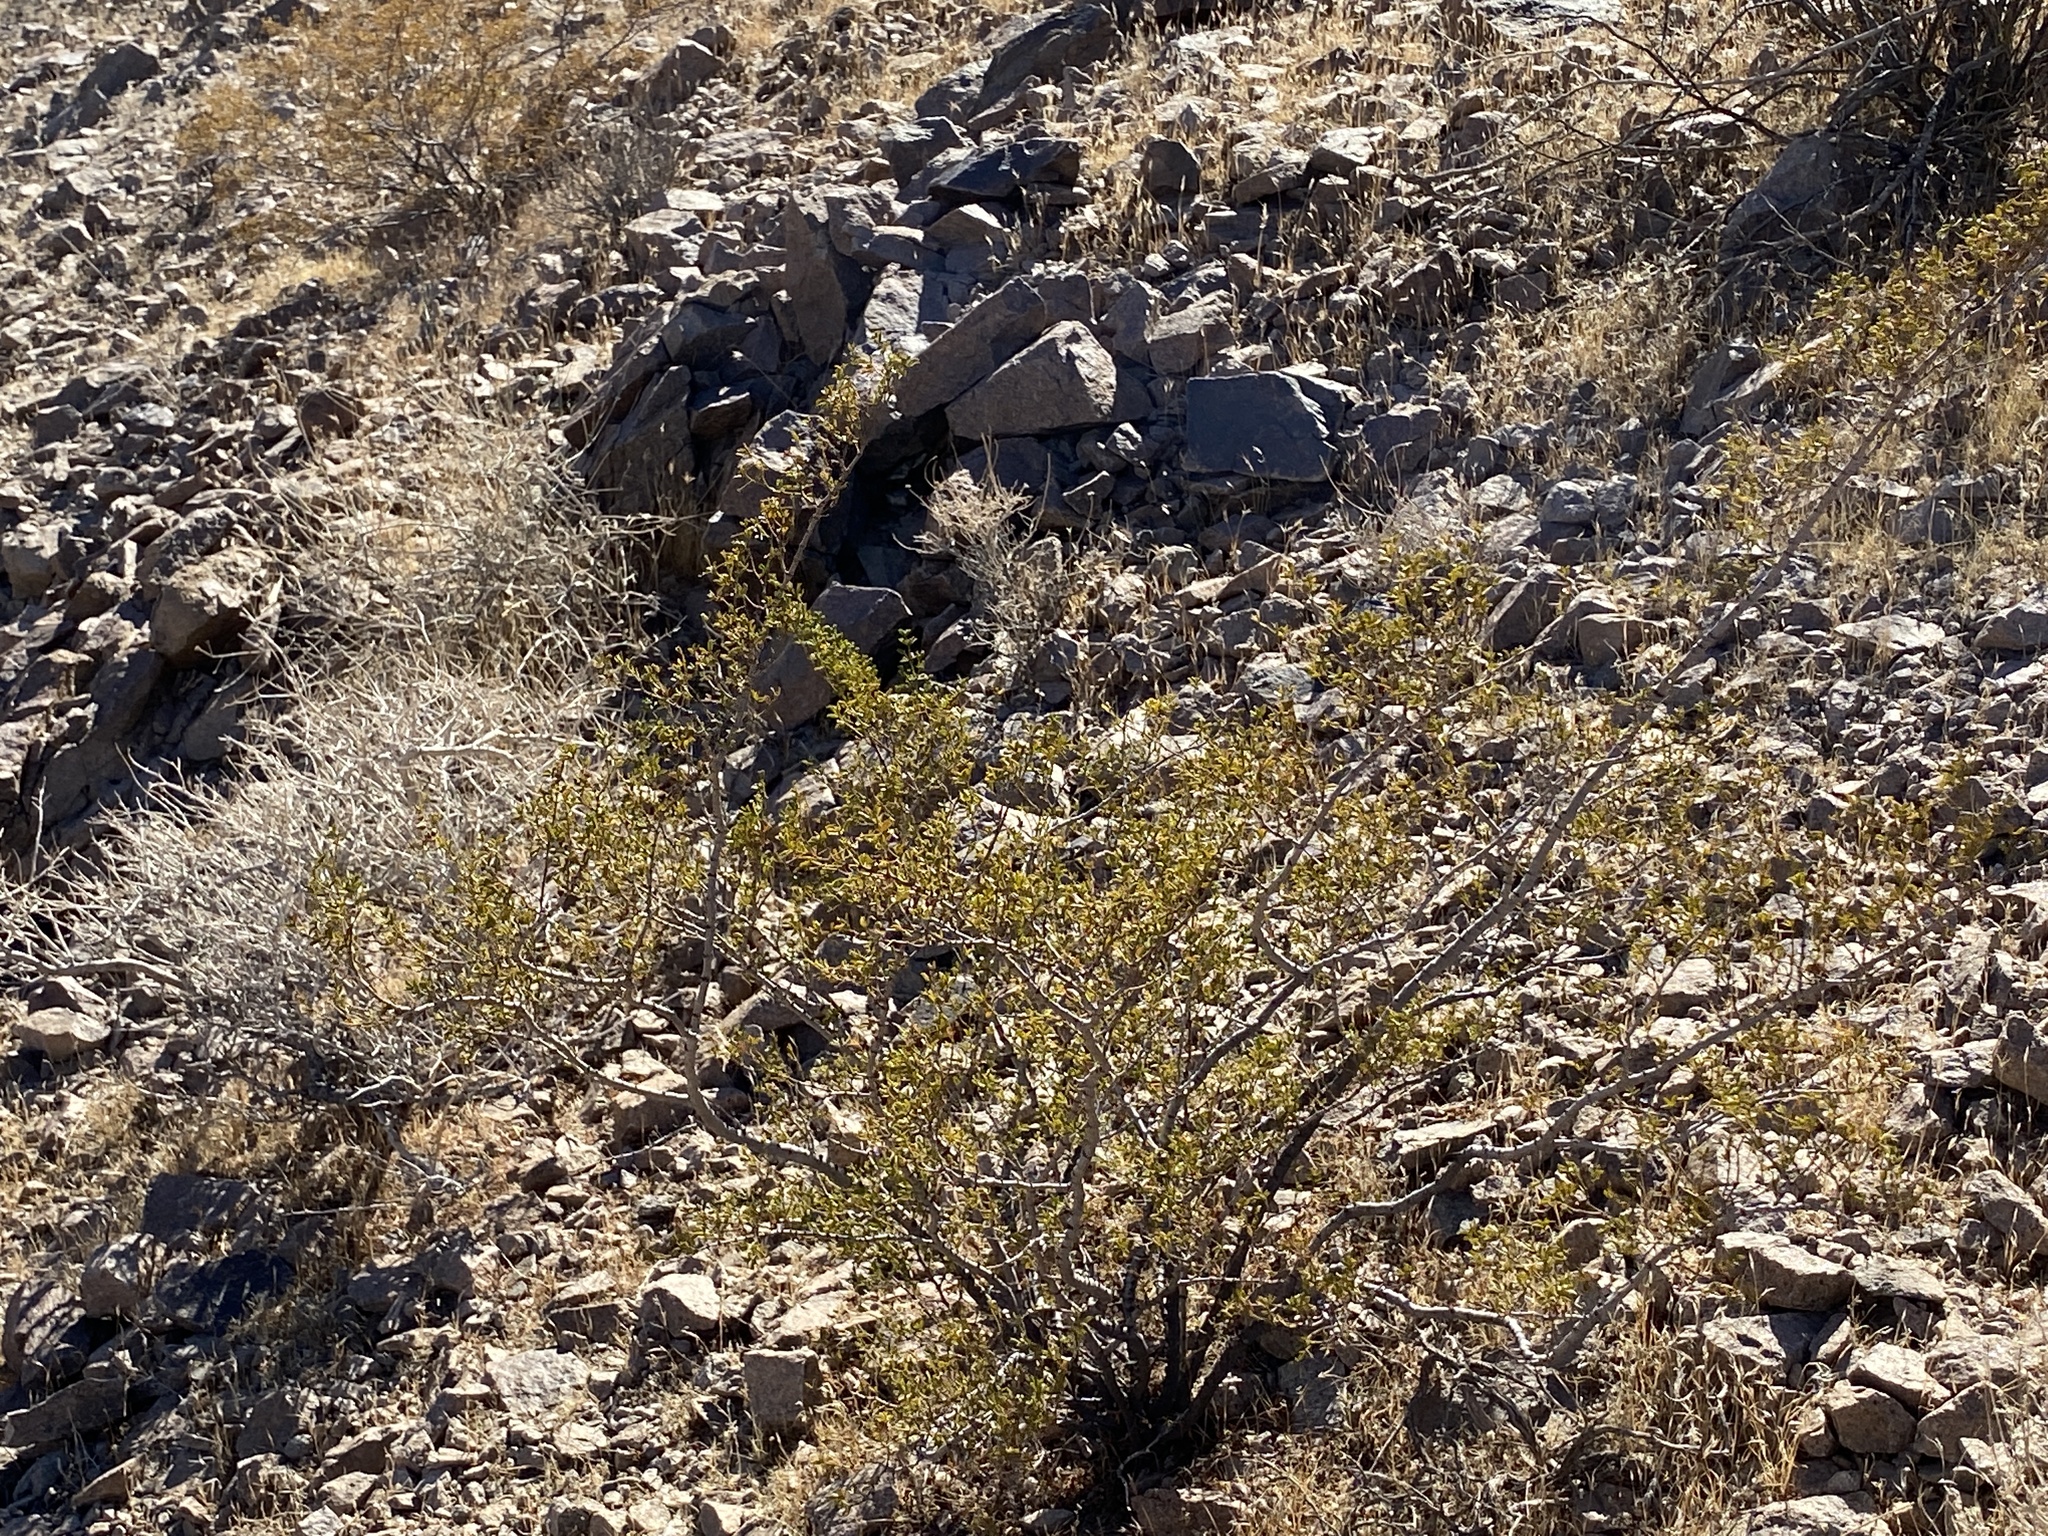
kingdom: Plantae
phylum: Tracheophyta
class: Magnoliopsida
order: Zygophyllales
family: Zygophyllaceae
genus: Larrea
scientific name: Larrea tridentata
